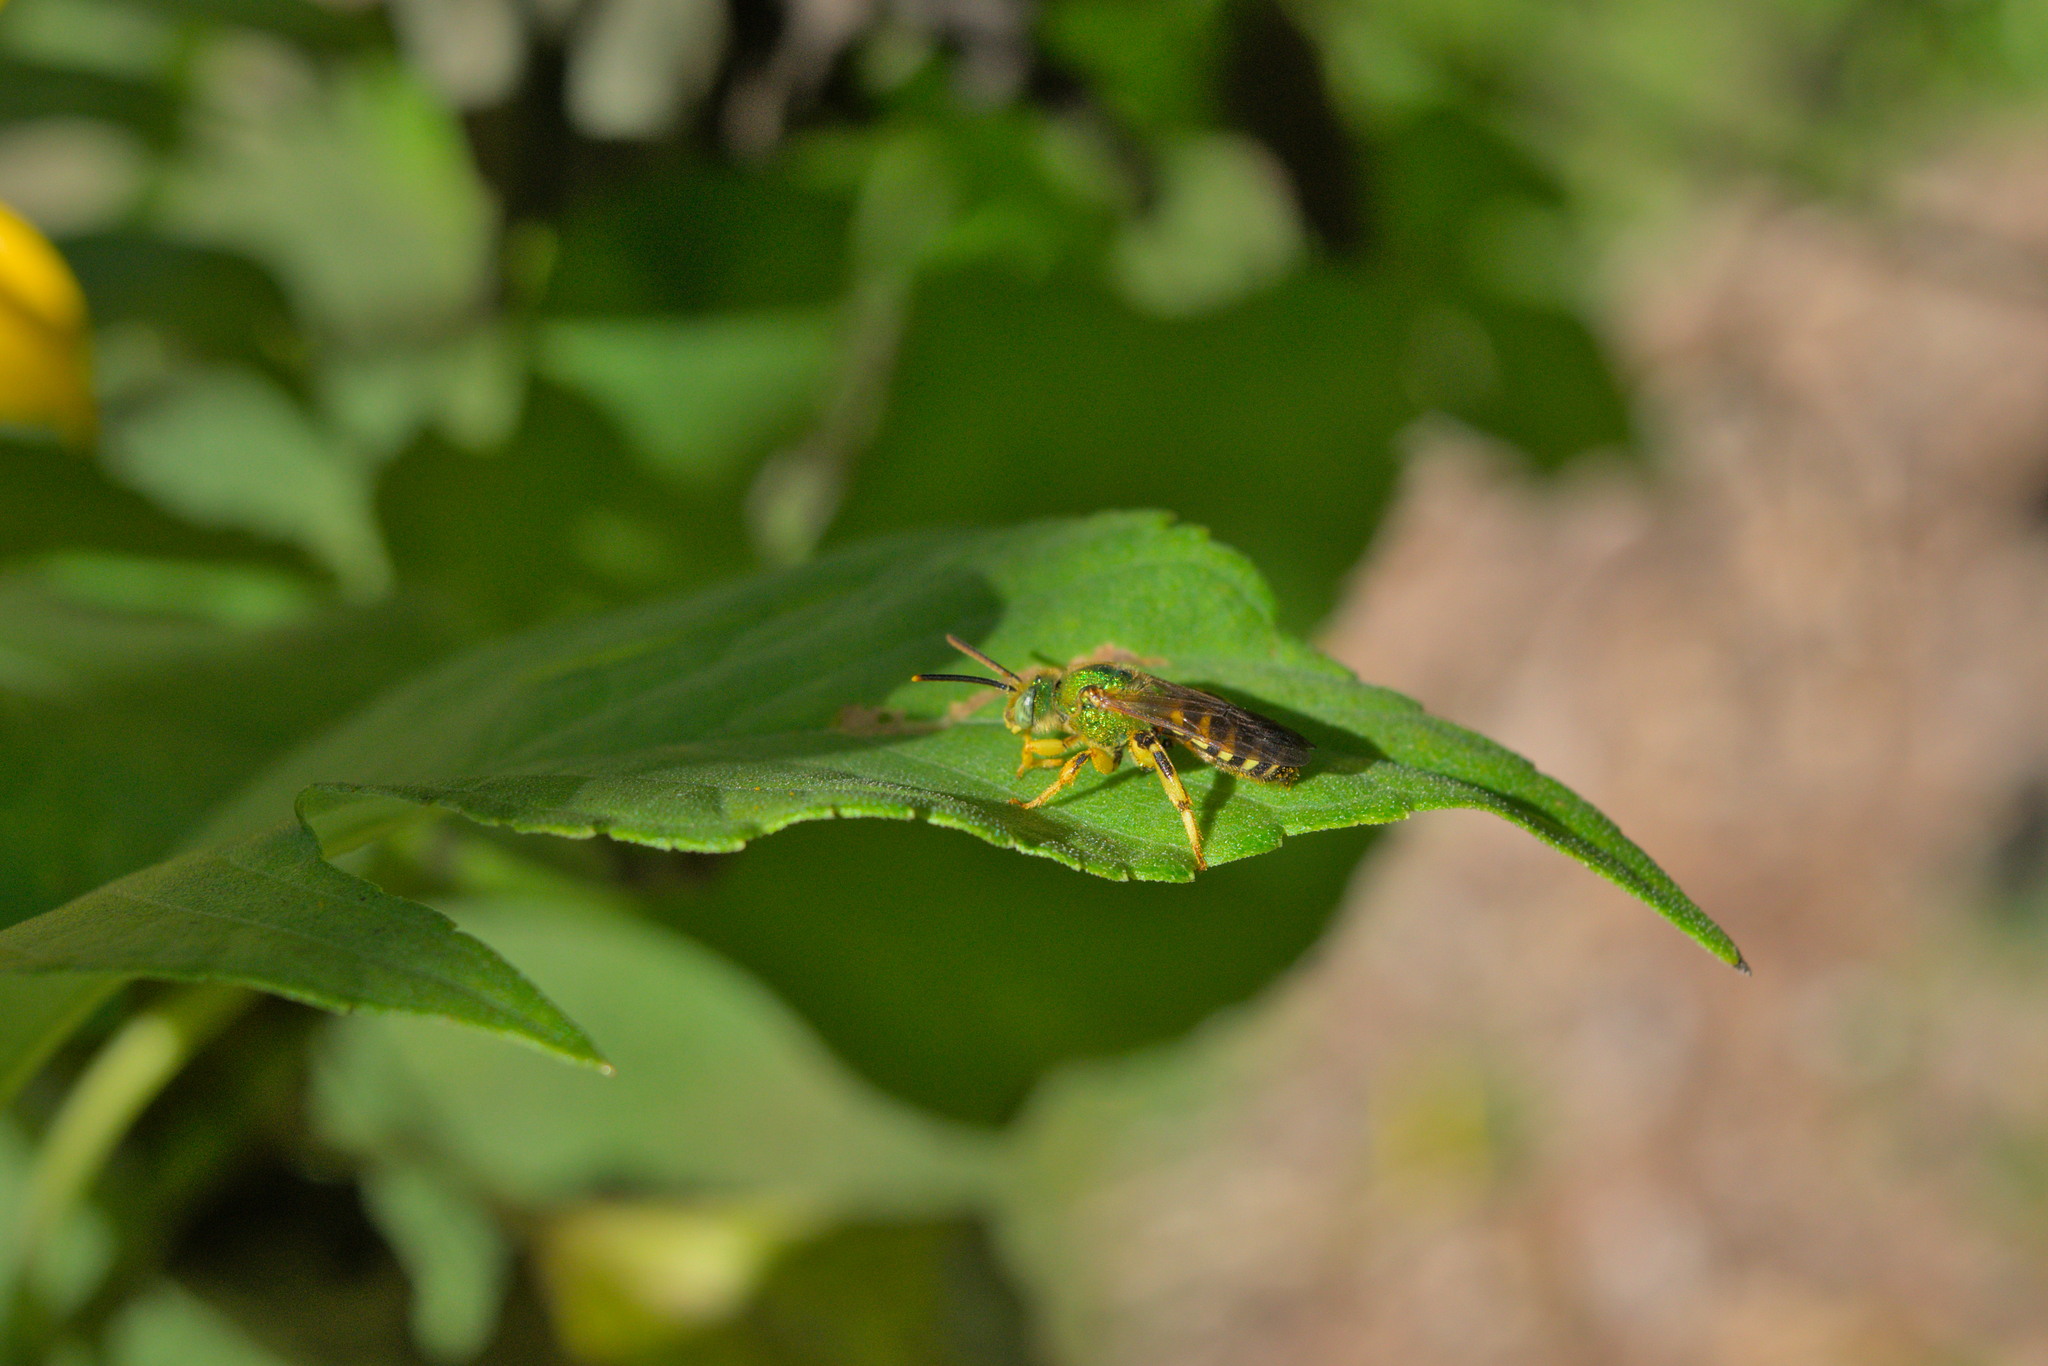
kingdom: Animalia
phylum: Arthropoda
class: Insecta
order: Hymenoptera
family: Halictidae
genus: Agapostemon
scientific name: Agapostemon splendens
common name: Brown-winged striped sweat bee
